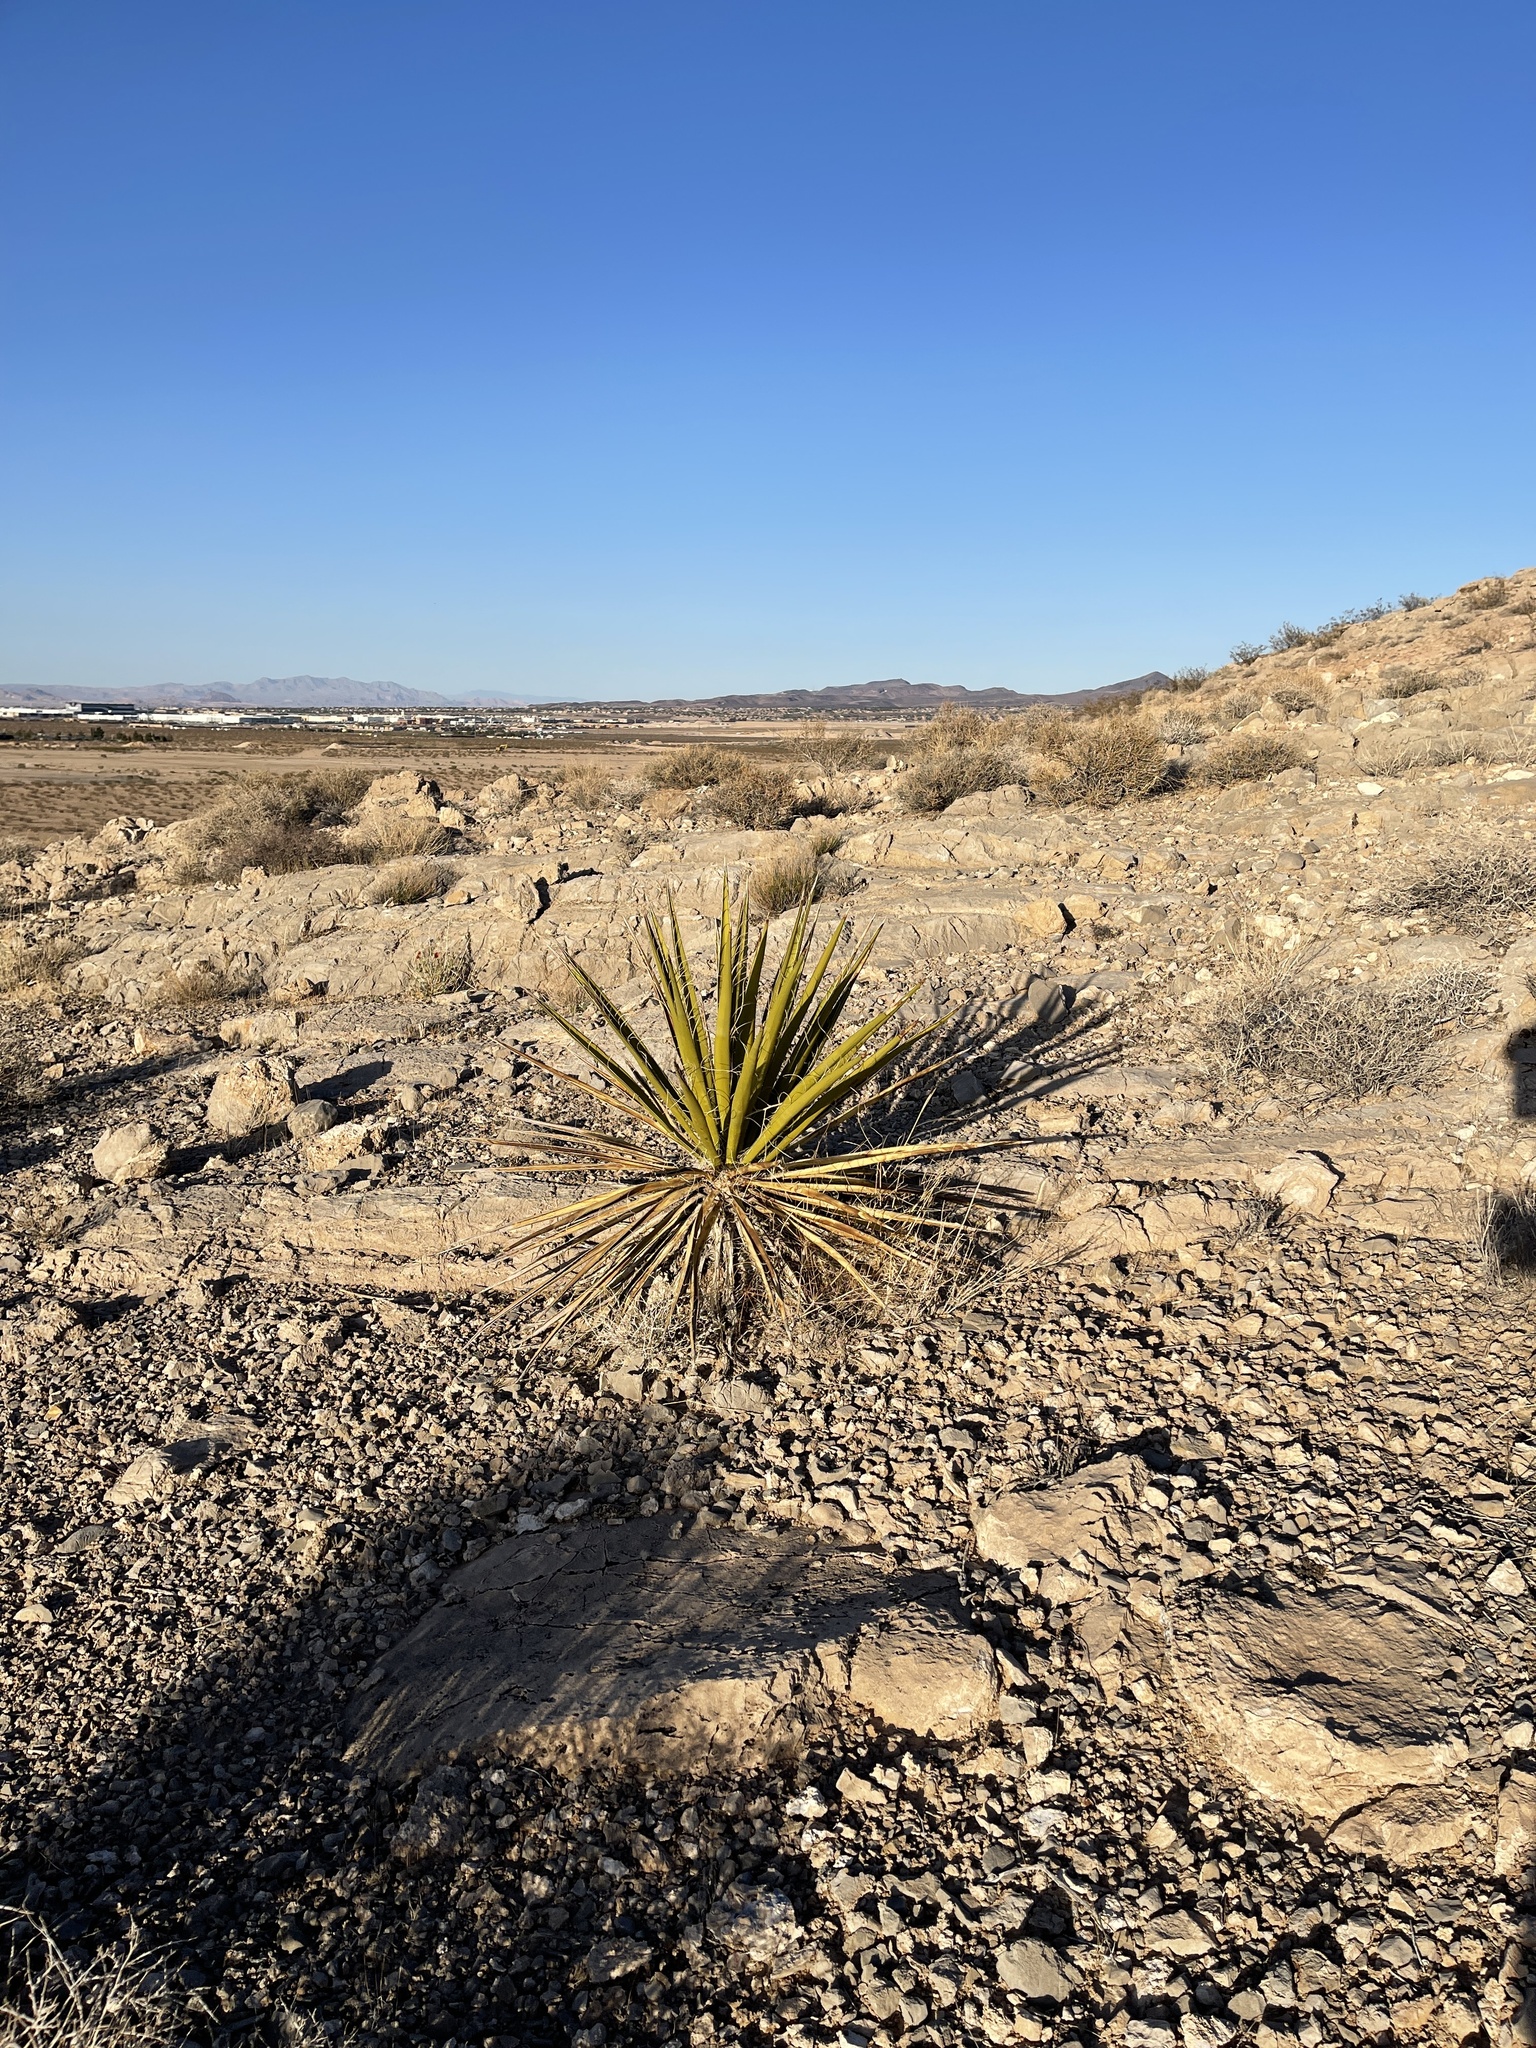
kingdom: Plantae
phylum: Tracheophyta
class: Liliopsida
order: Asparagales
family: Asparagaceae
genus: Yucca
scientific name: Yucca schidigera
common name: Mojave yucca
